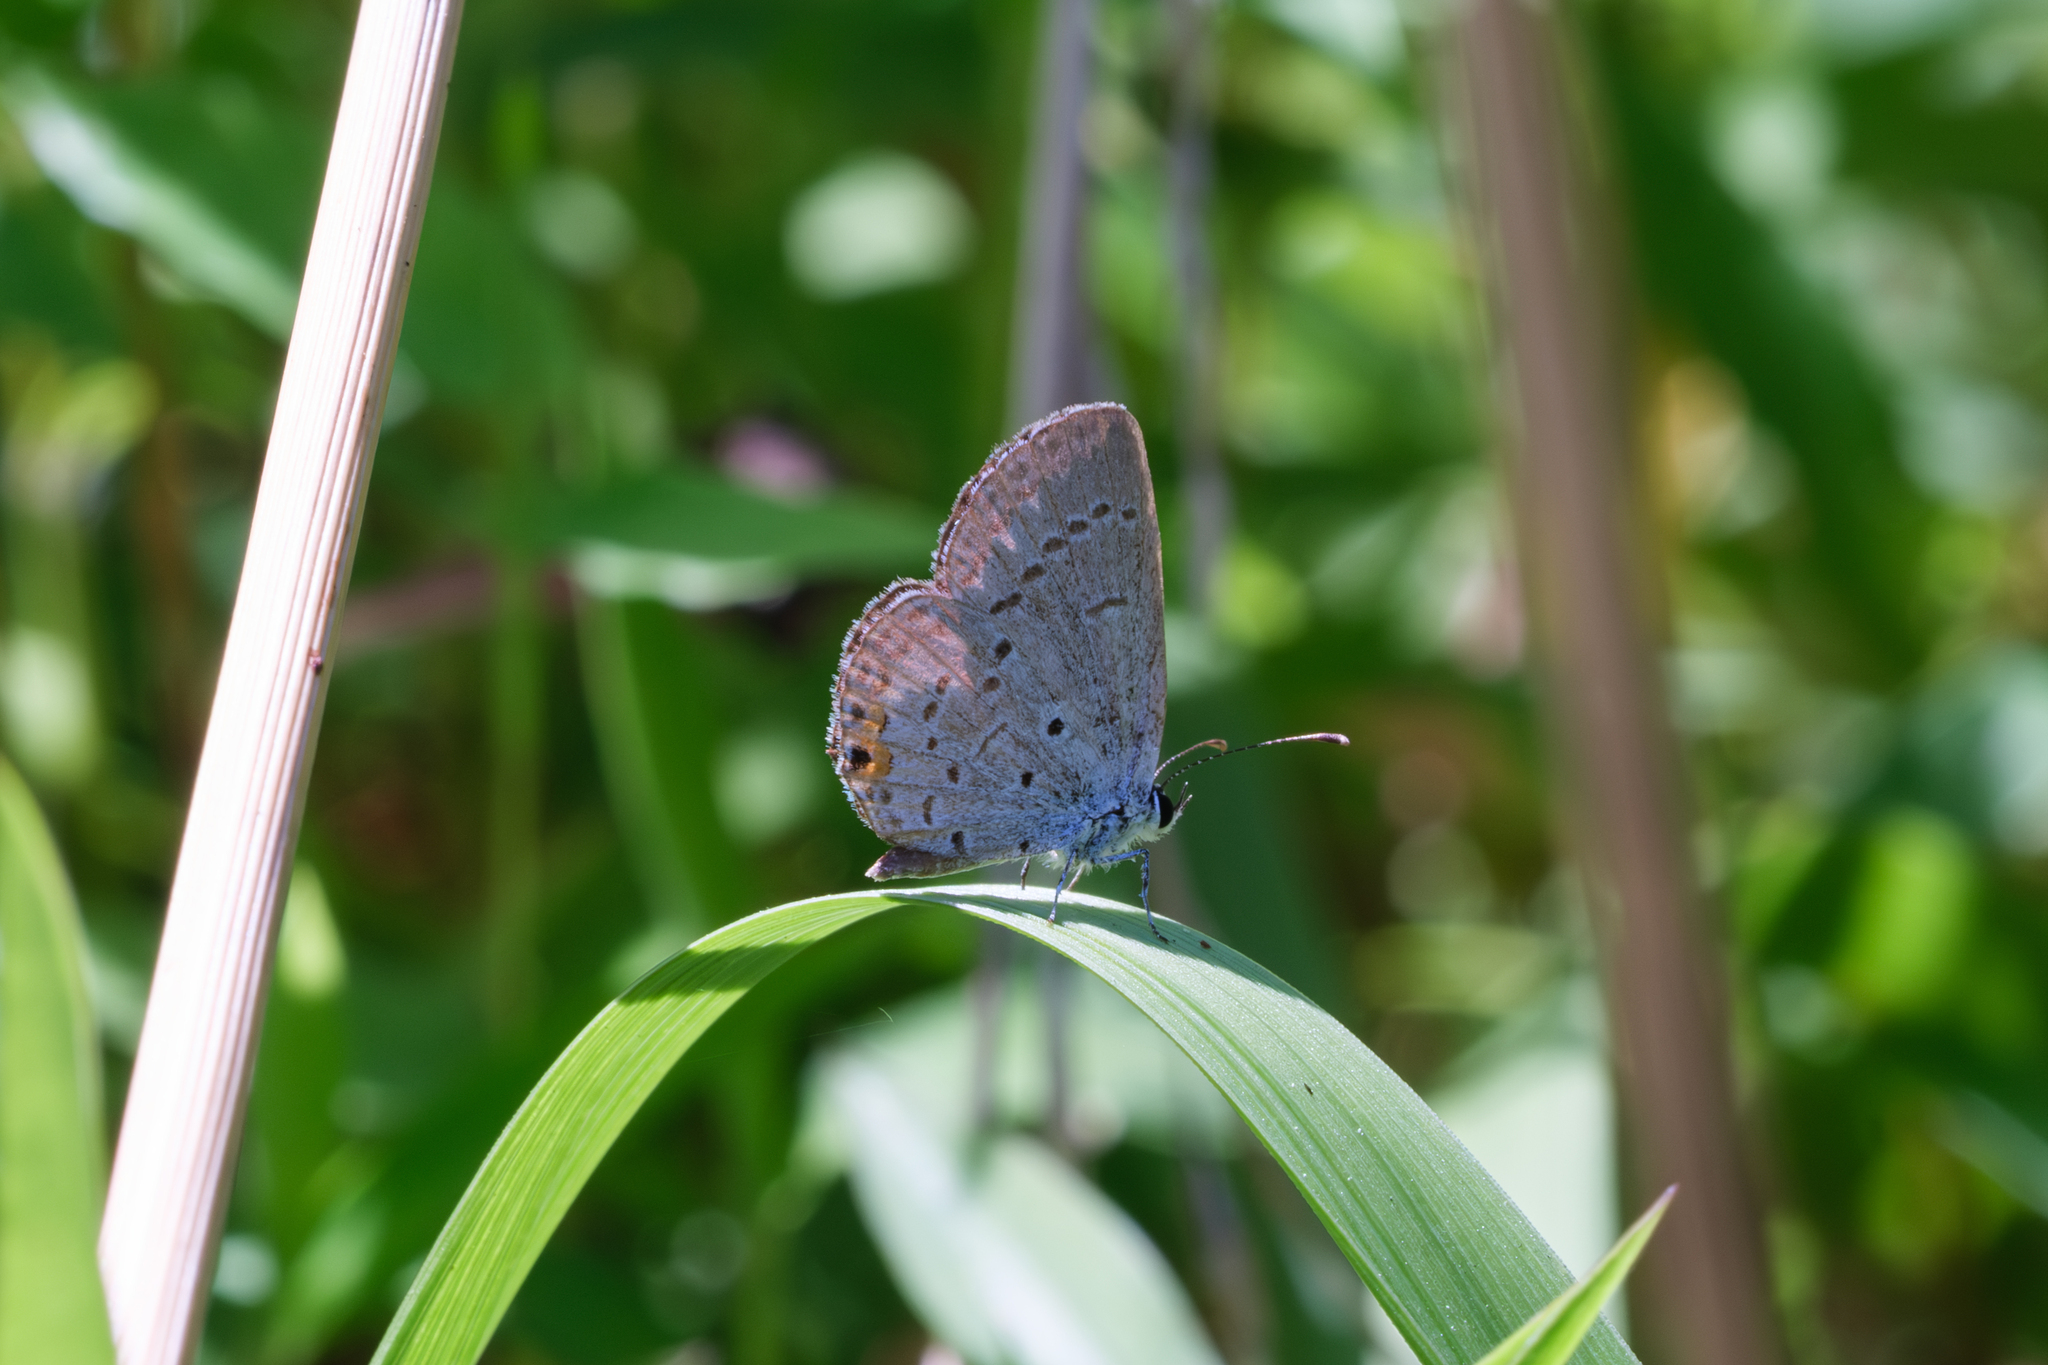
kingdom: Animalia
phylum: Arthropoda
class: Insecta
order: Lepidoptera
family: Lycaenidae
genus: Elkalyce
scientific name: Elkalyce comyntas
